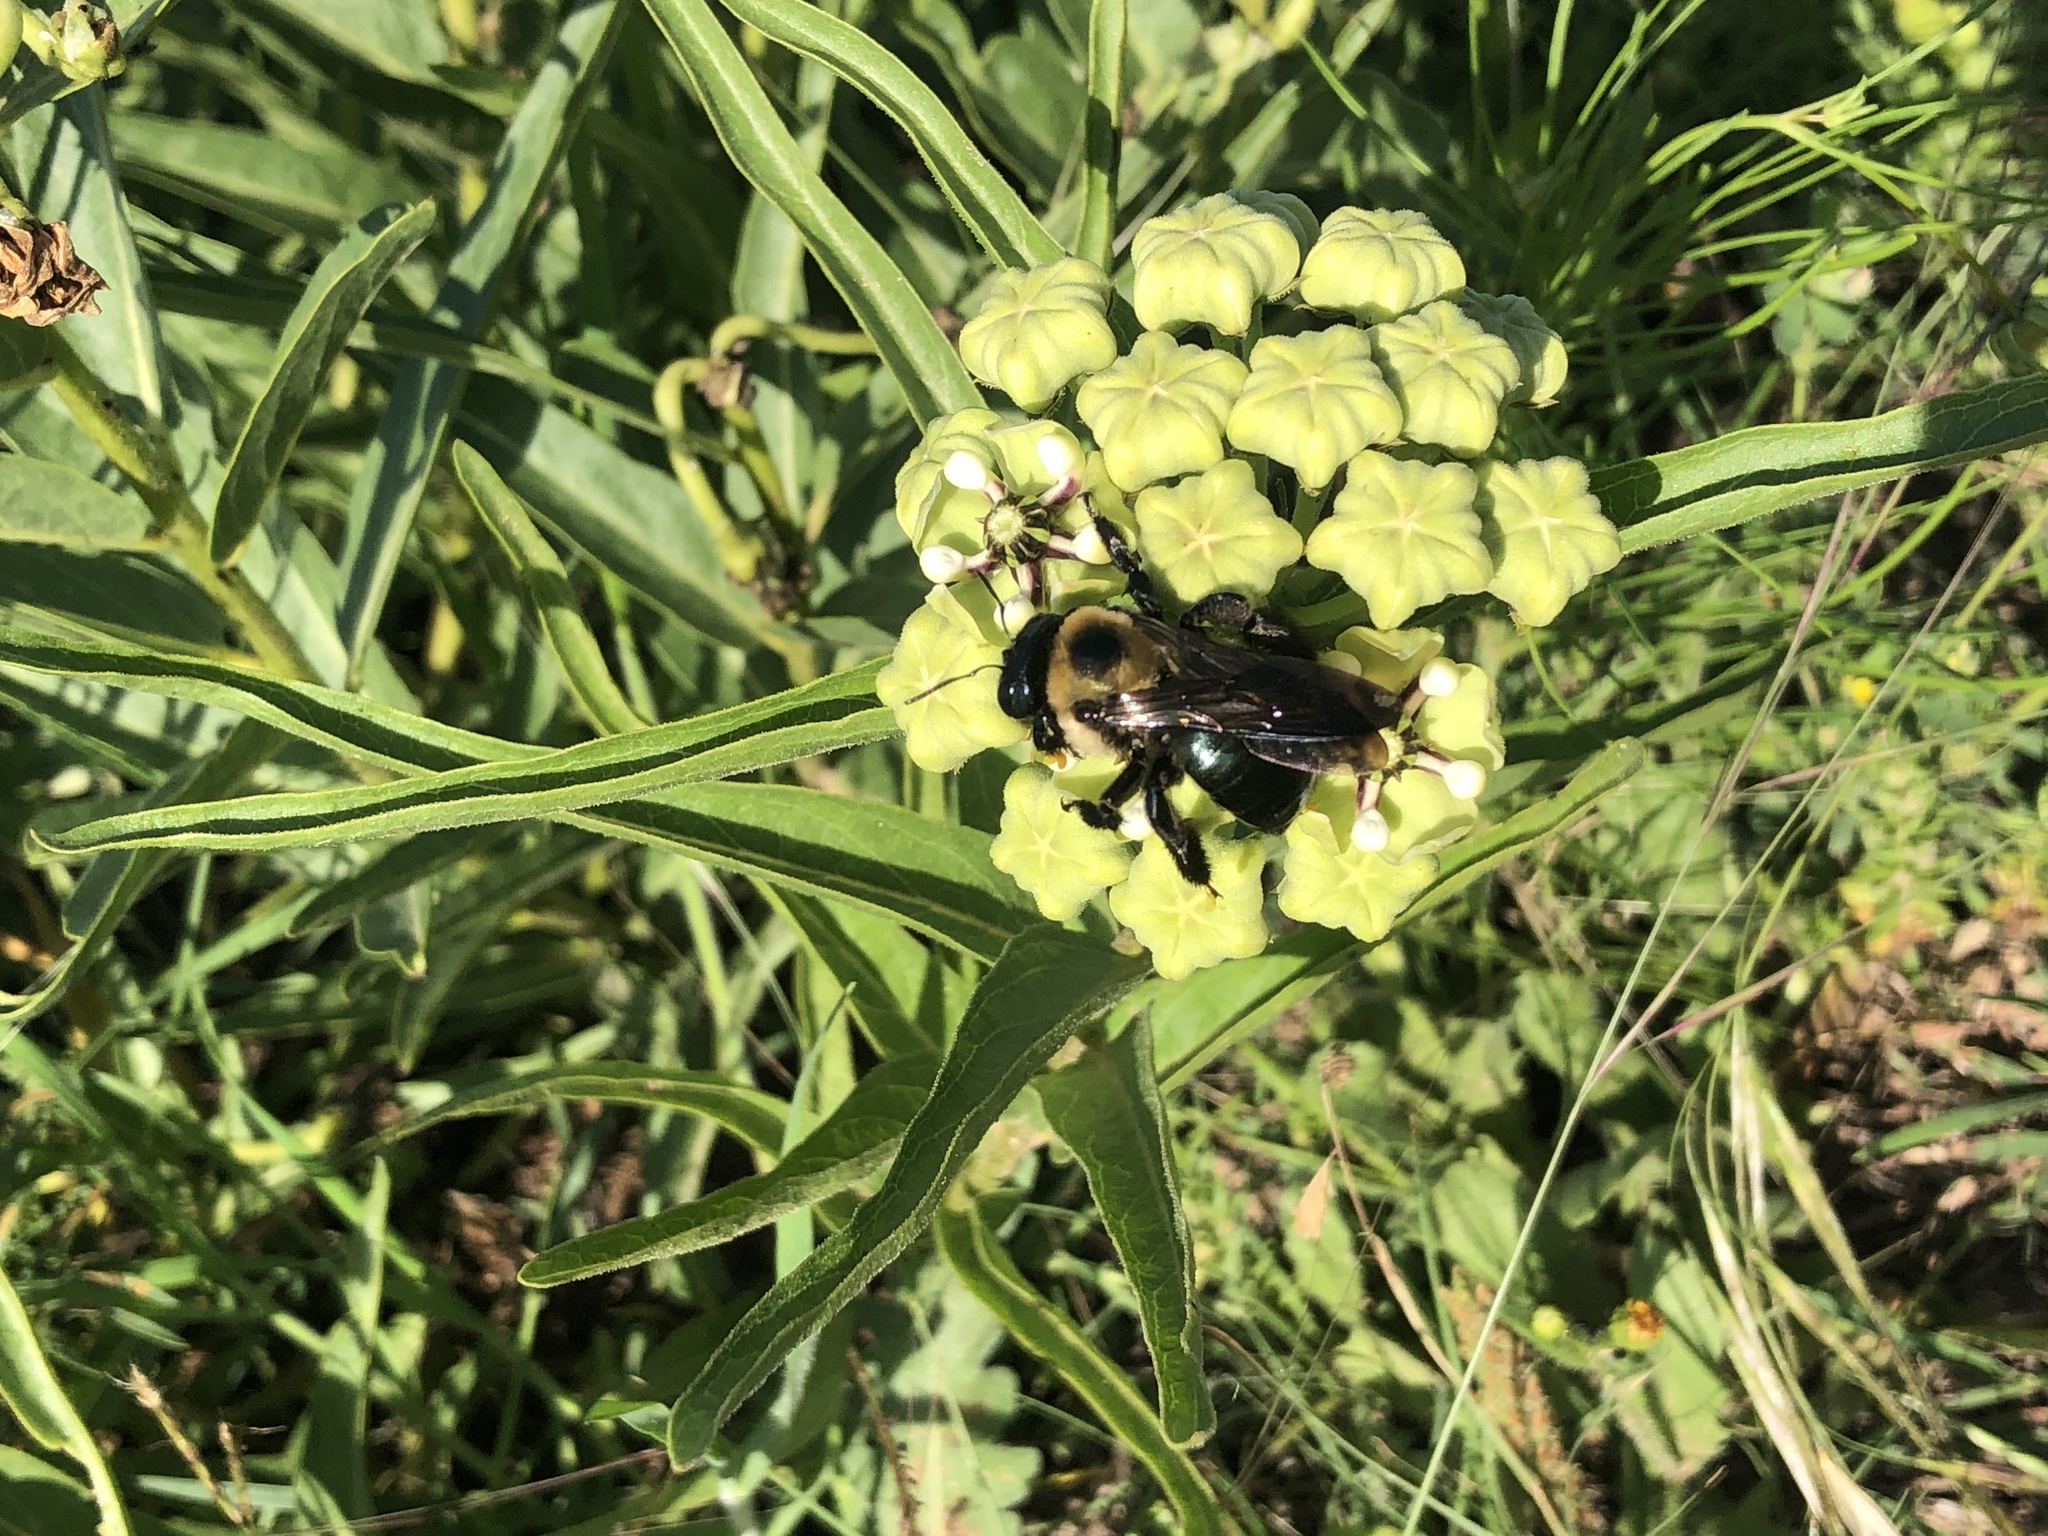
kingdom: Animalia
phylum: Arthropoda
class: Insecta
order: Hymenoptera
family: Apidae
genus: Xylocopa
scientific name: Xylocopa virginica
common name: Carpenter bee
